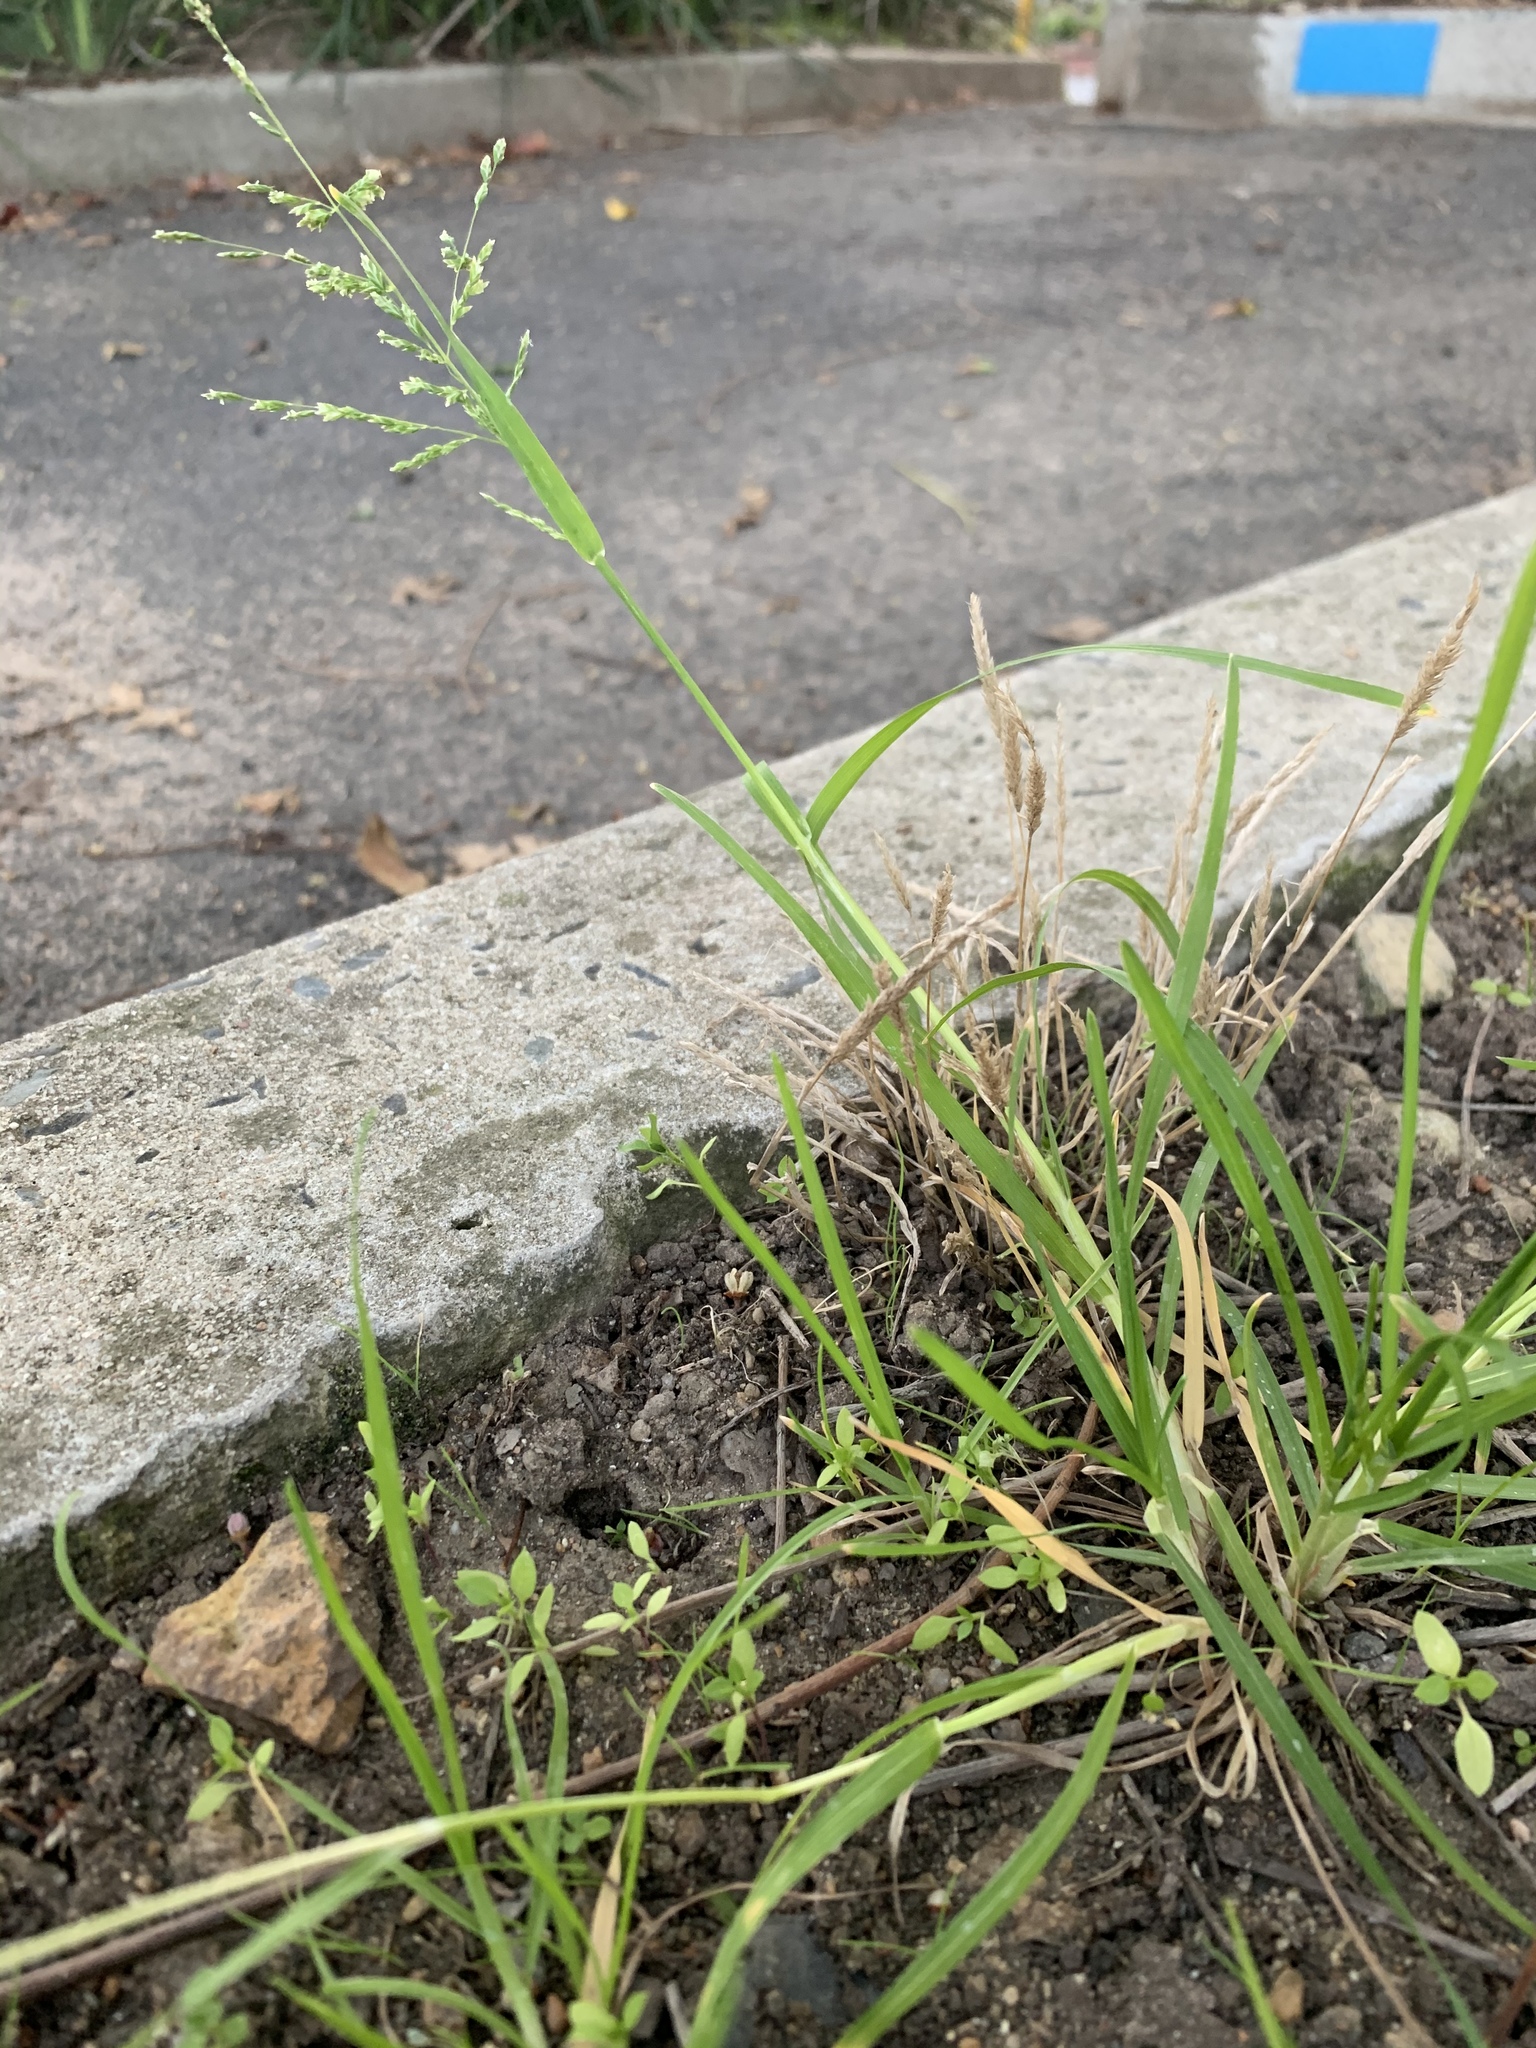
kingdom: Plantae
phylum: Tracheophyta
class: Liliopsida
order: Poales
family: Poaceae
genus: Poa
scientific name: Poa annua
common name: Annual bluegrass
